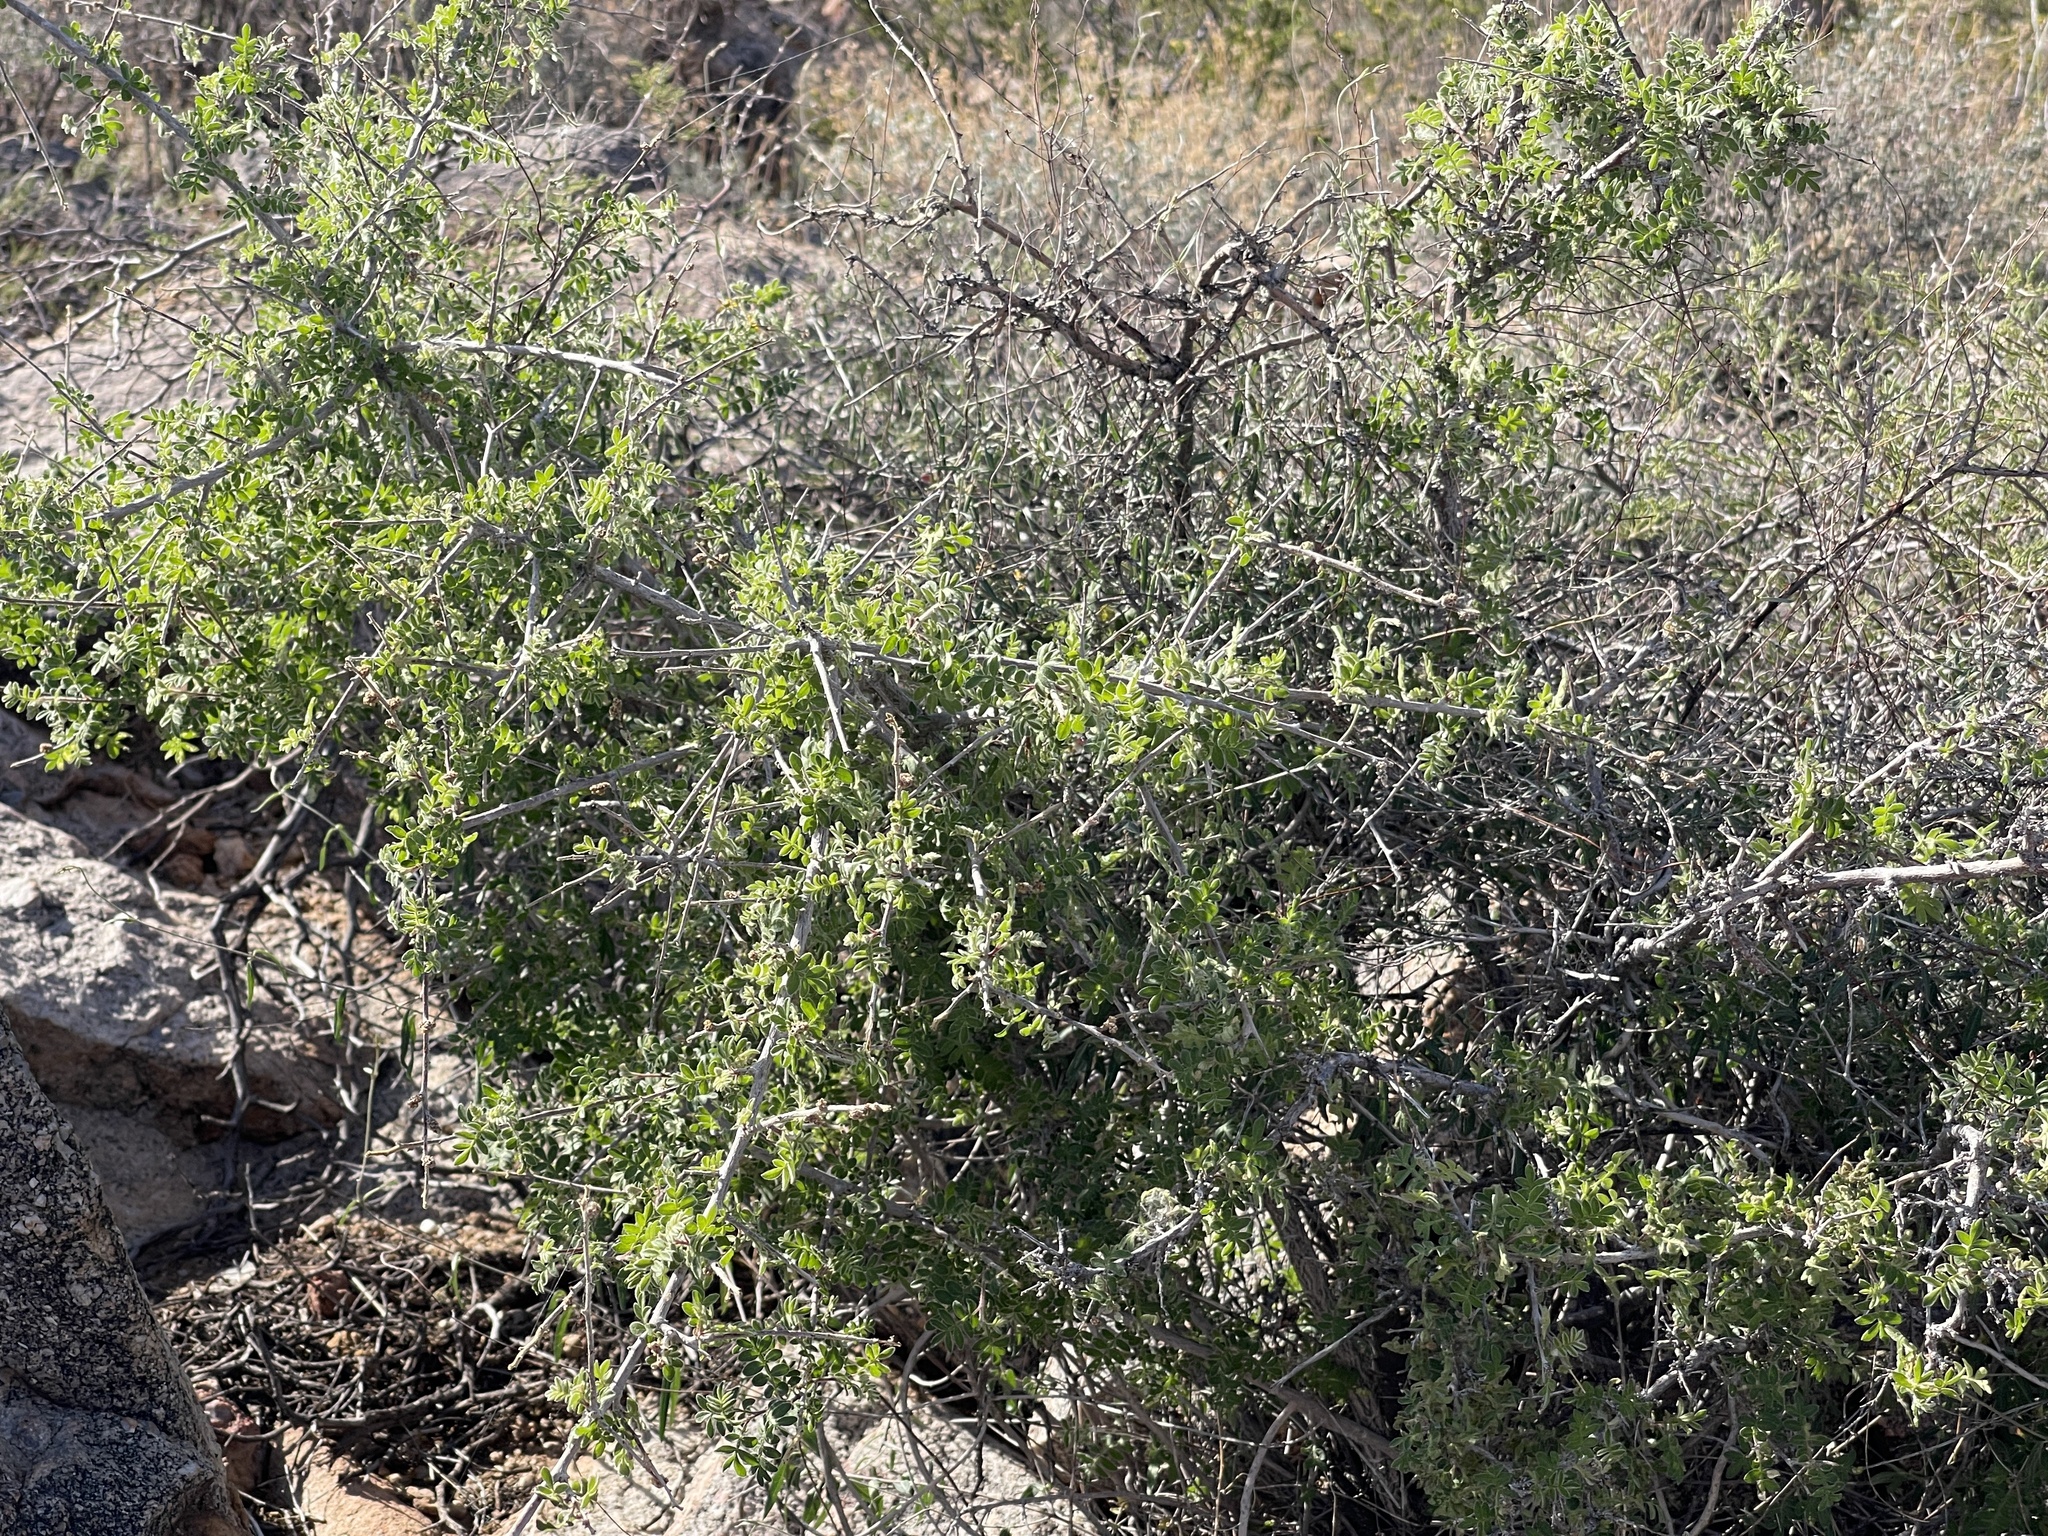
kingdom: Plantae
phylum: Tracheophyta
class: Magnoliopsida
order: Sapindales
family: Anacardiaceae
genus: Rhus
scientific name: Rhus microphylla
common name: Desert sumac
